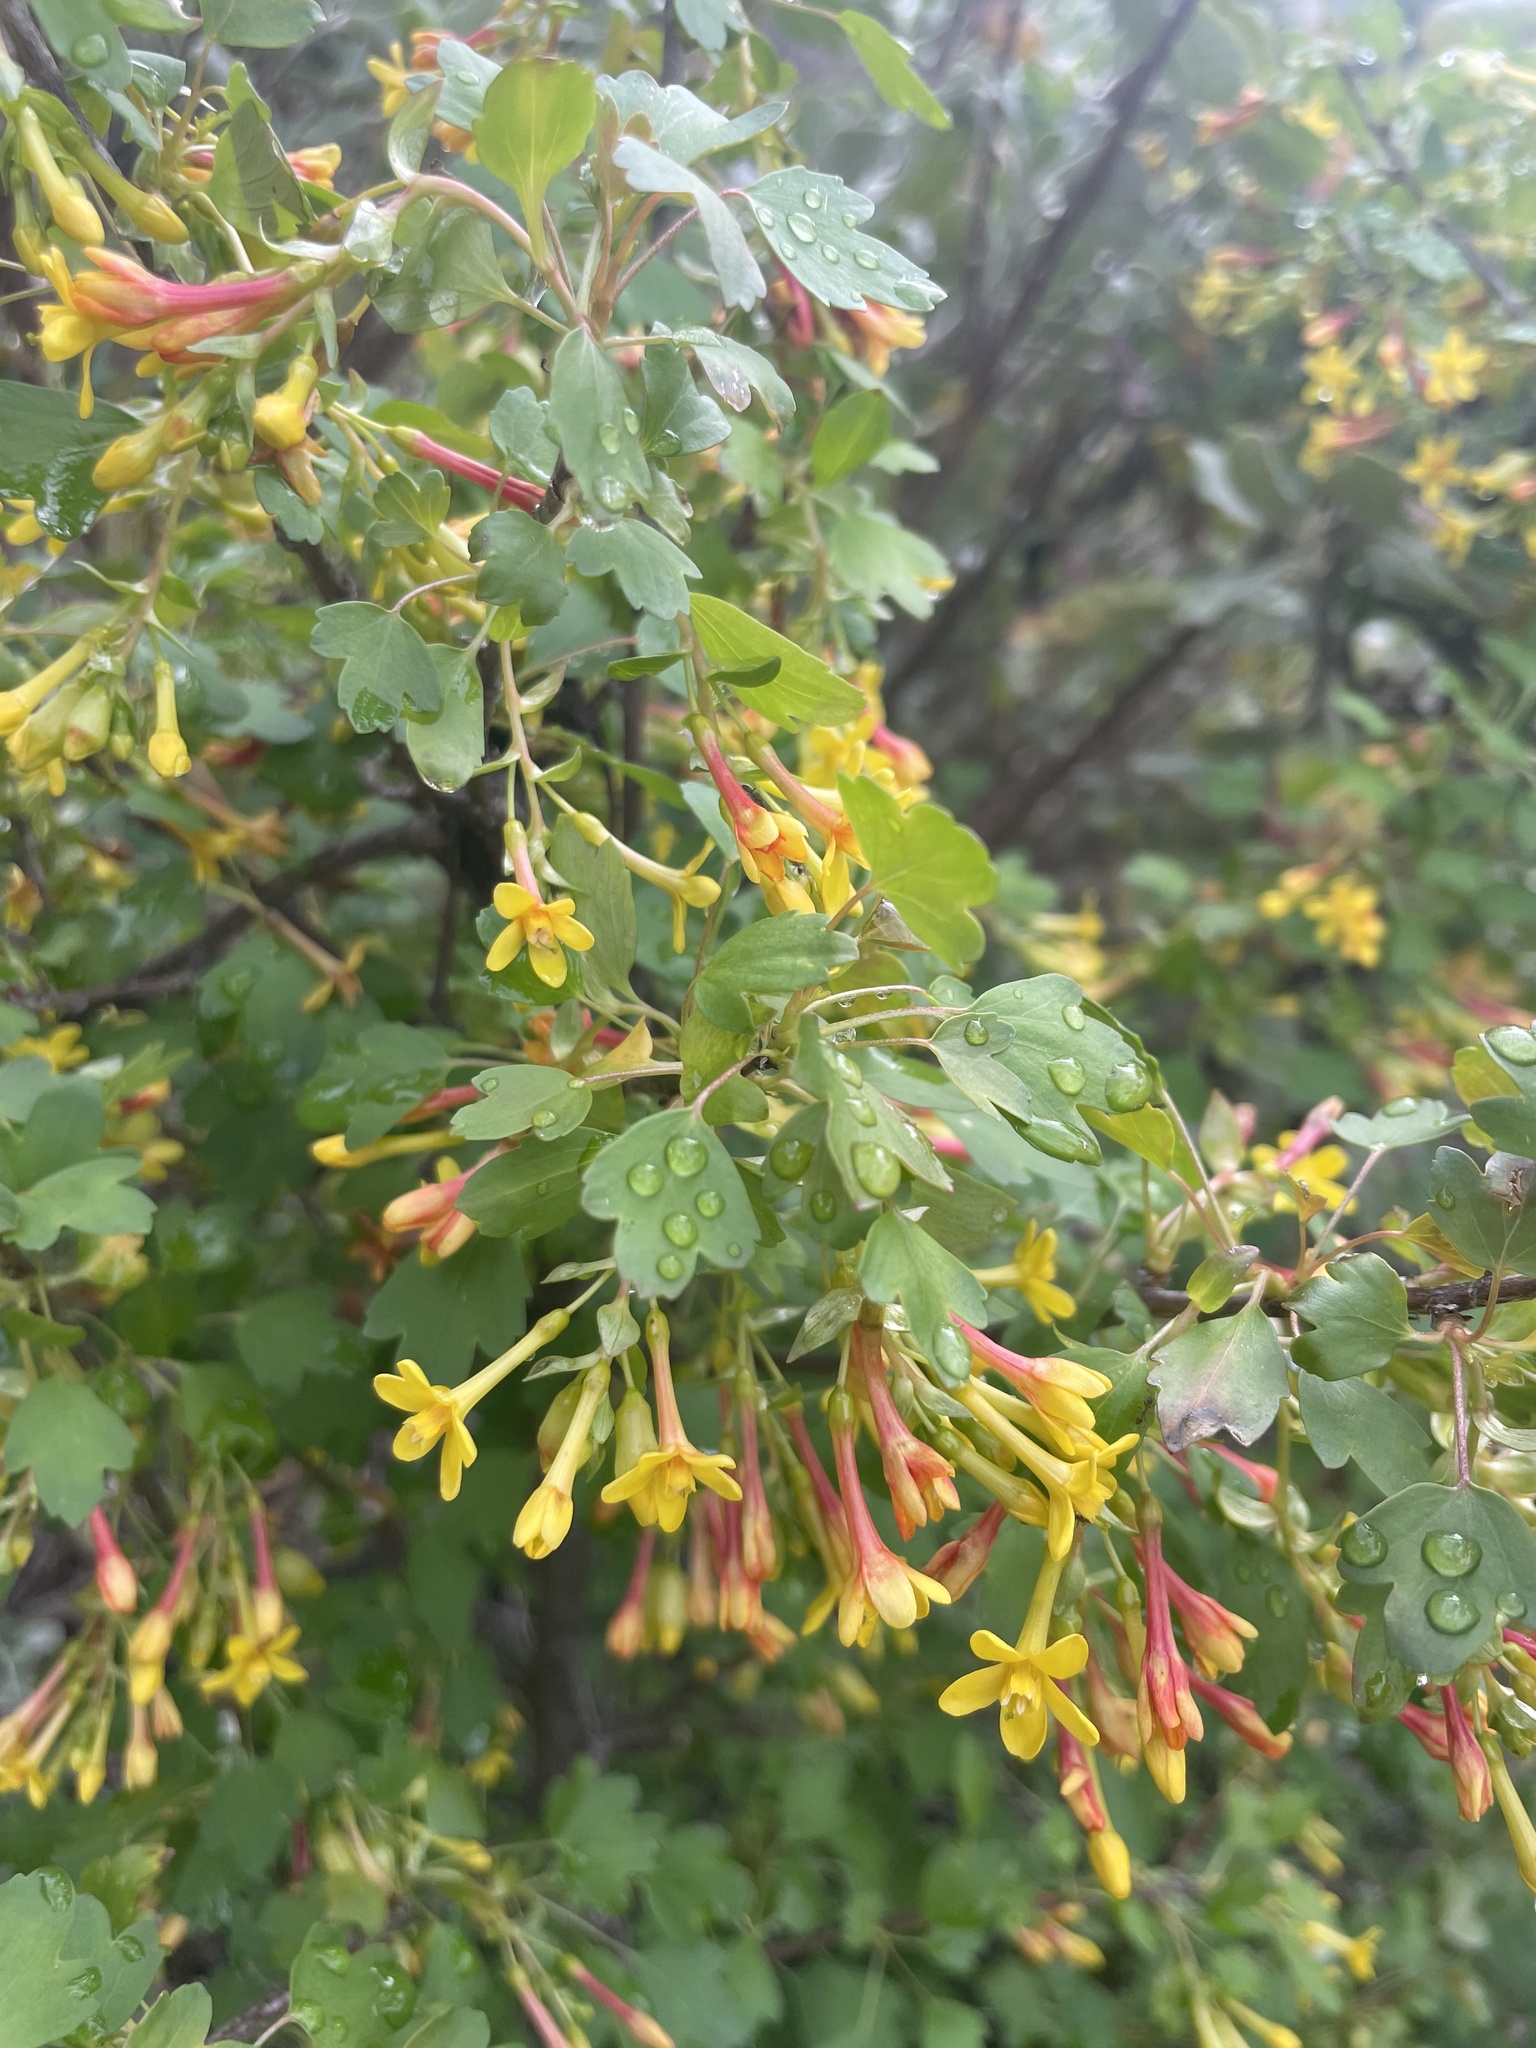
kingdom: Plantae
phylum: Tracheophyta
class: Magnoliopsida
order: Saxifragales
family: Grossulariaceae
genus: Ribes
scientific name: Ribes aureum
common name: Golden currant
